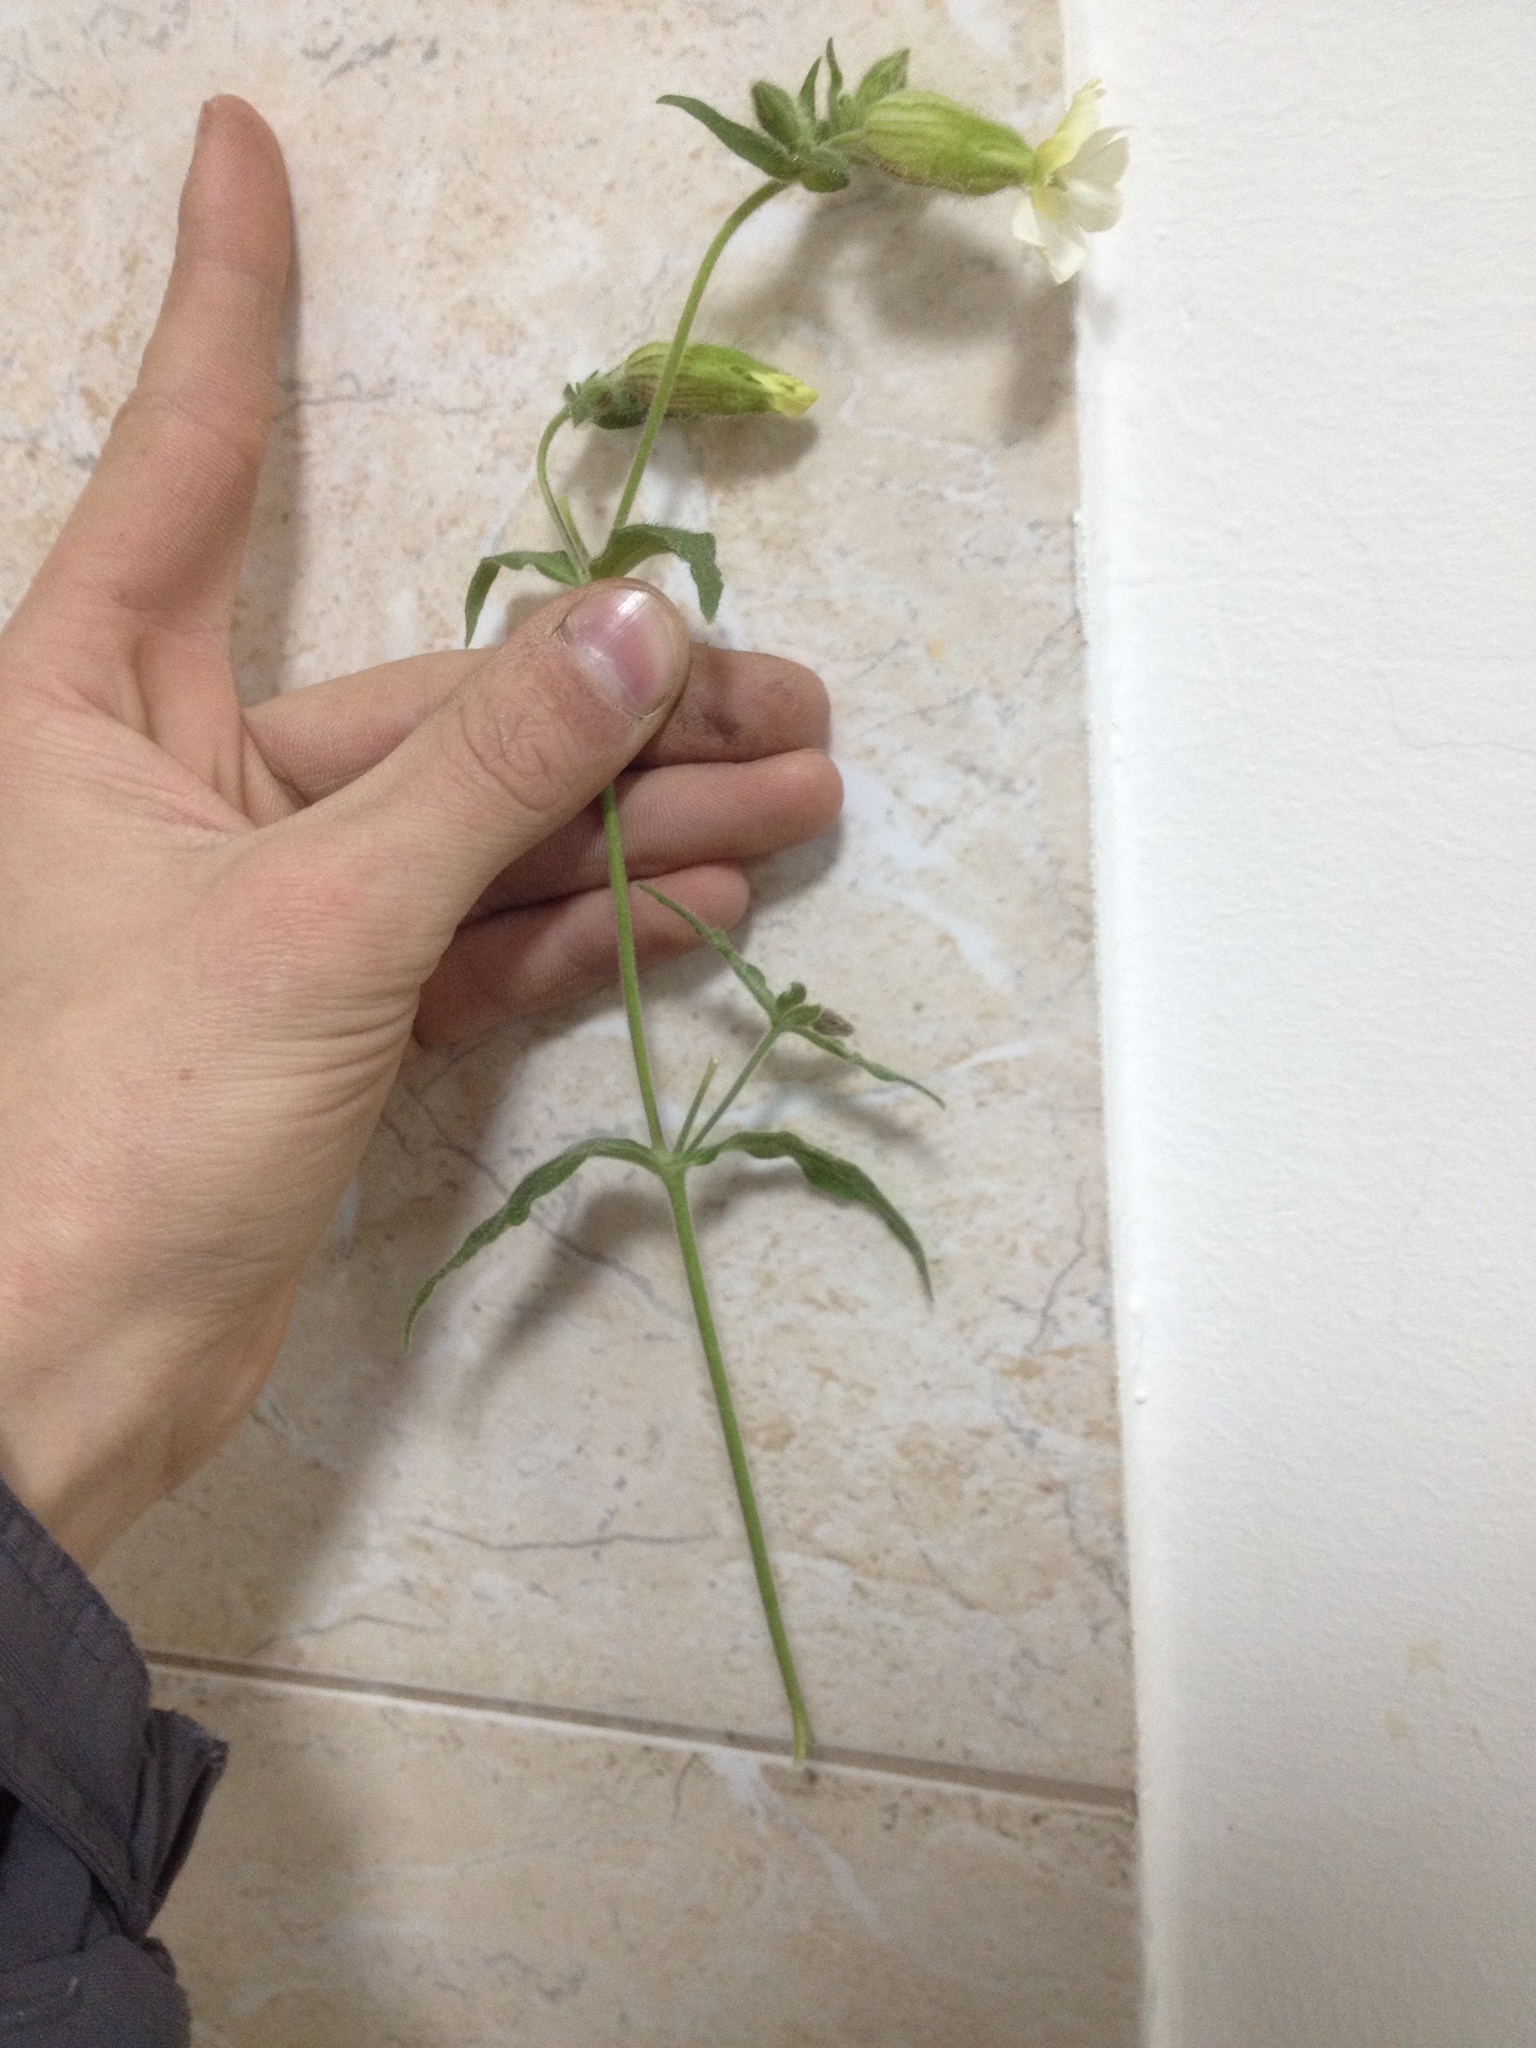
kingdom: Plantae
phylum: Tracheophyta
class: Magnoliopsida
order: Caryophyllales
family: Caryophyllaceae
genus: Silene
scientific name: Silene latifolia
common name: White campion
